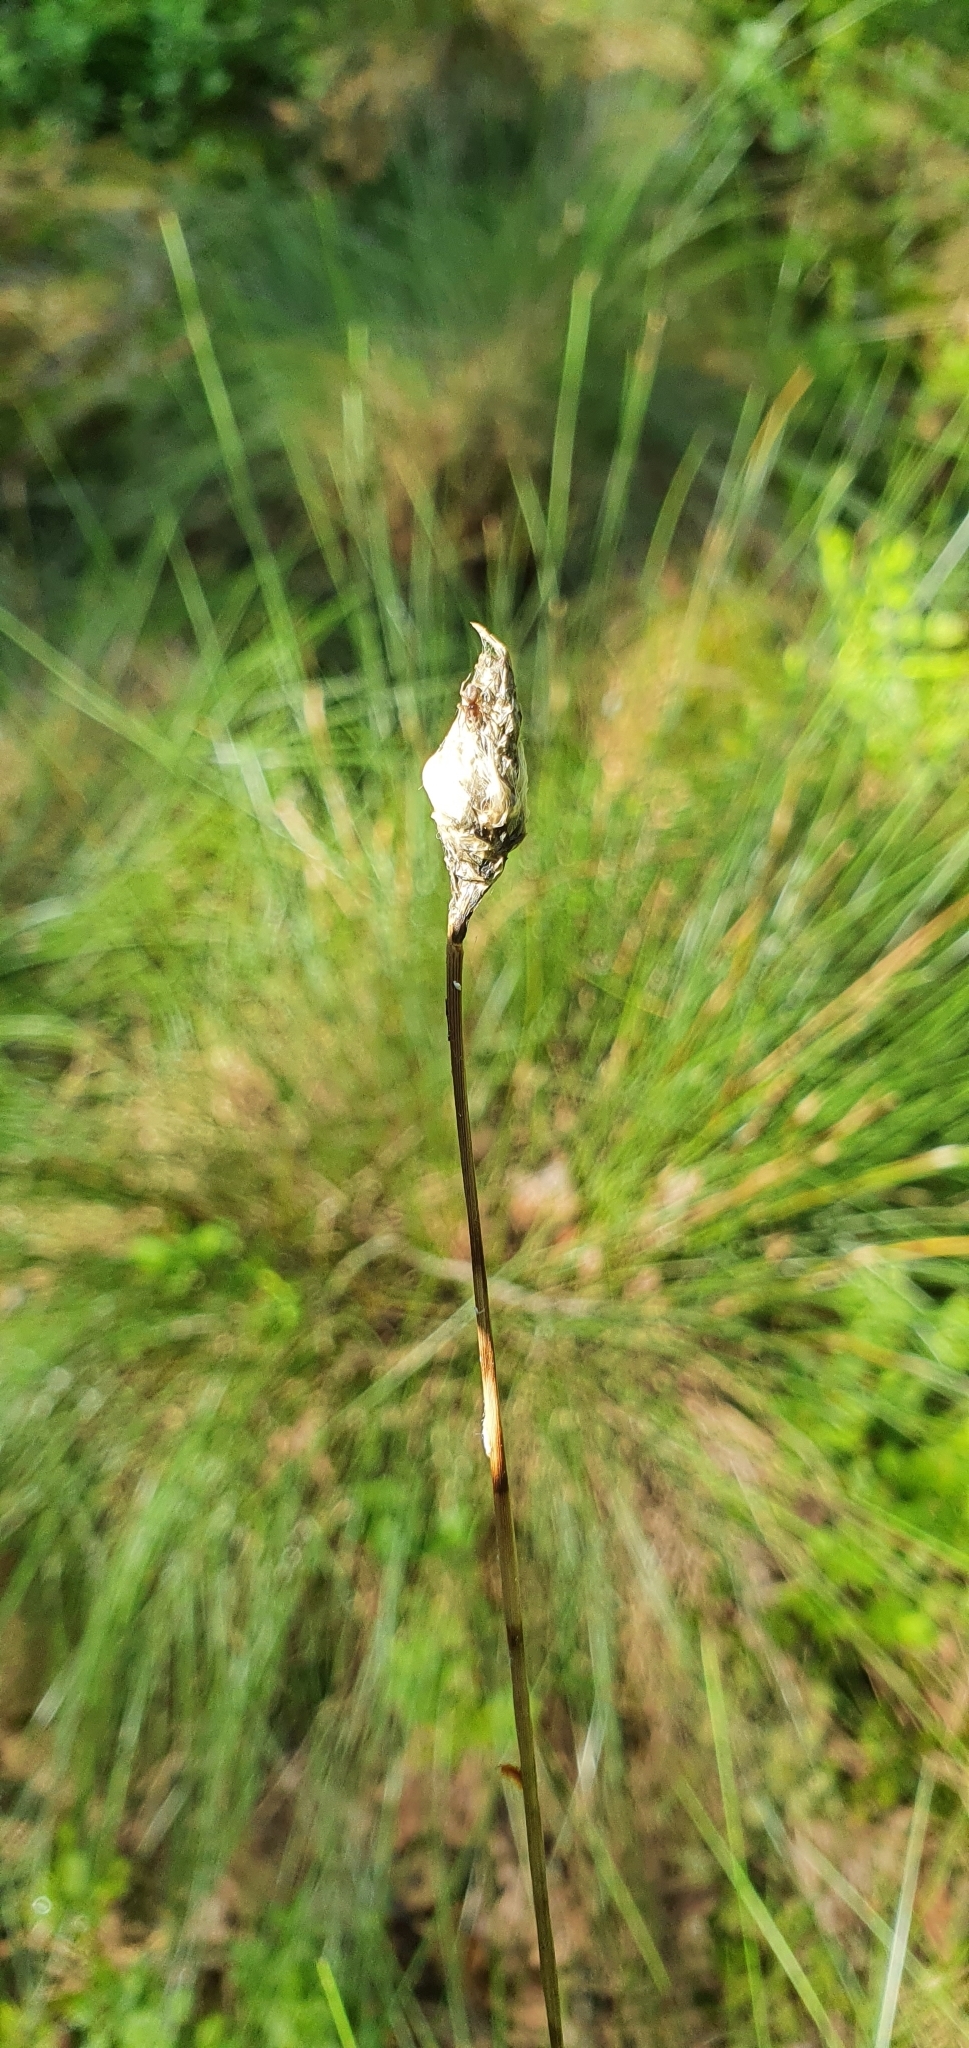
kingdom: Plantae
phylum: Tracheophyta
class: Liliopsida
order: Poales
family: Cyperaceae
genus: Eriophorum
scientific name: Eriophorum vaginatum
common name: Hare's-tail cottongrass
